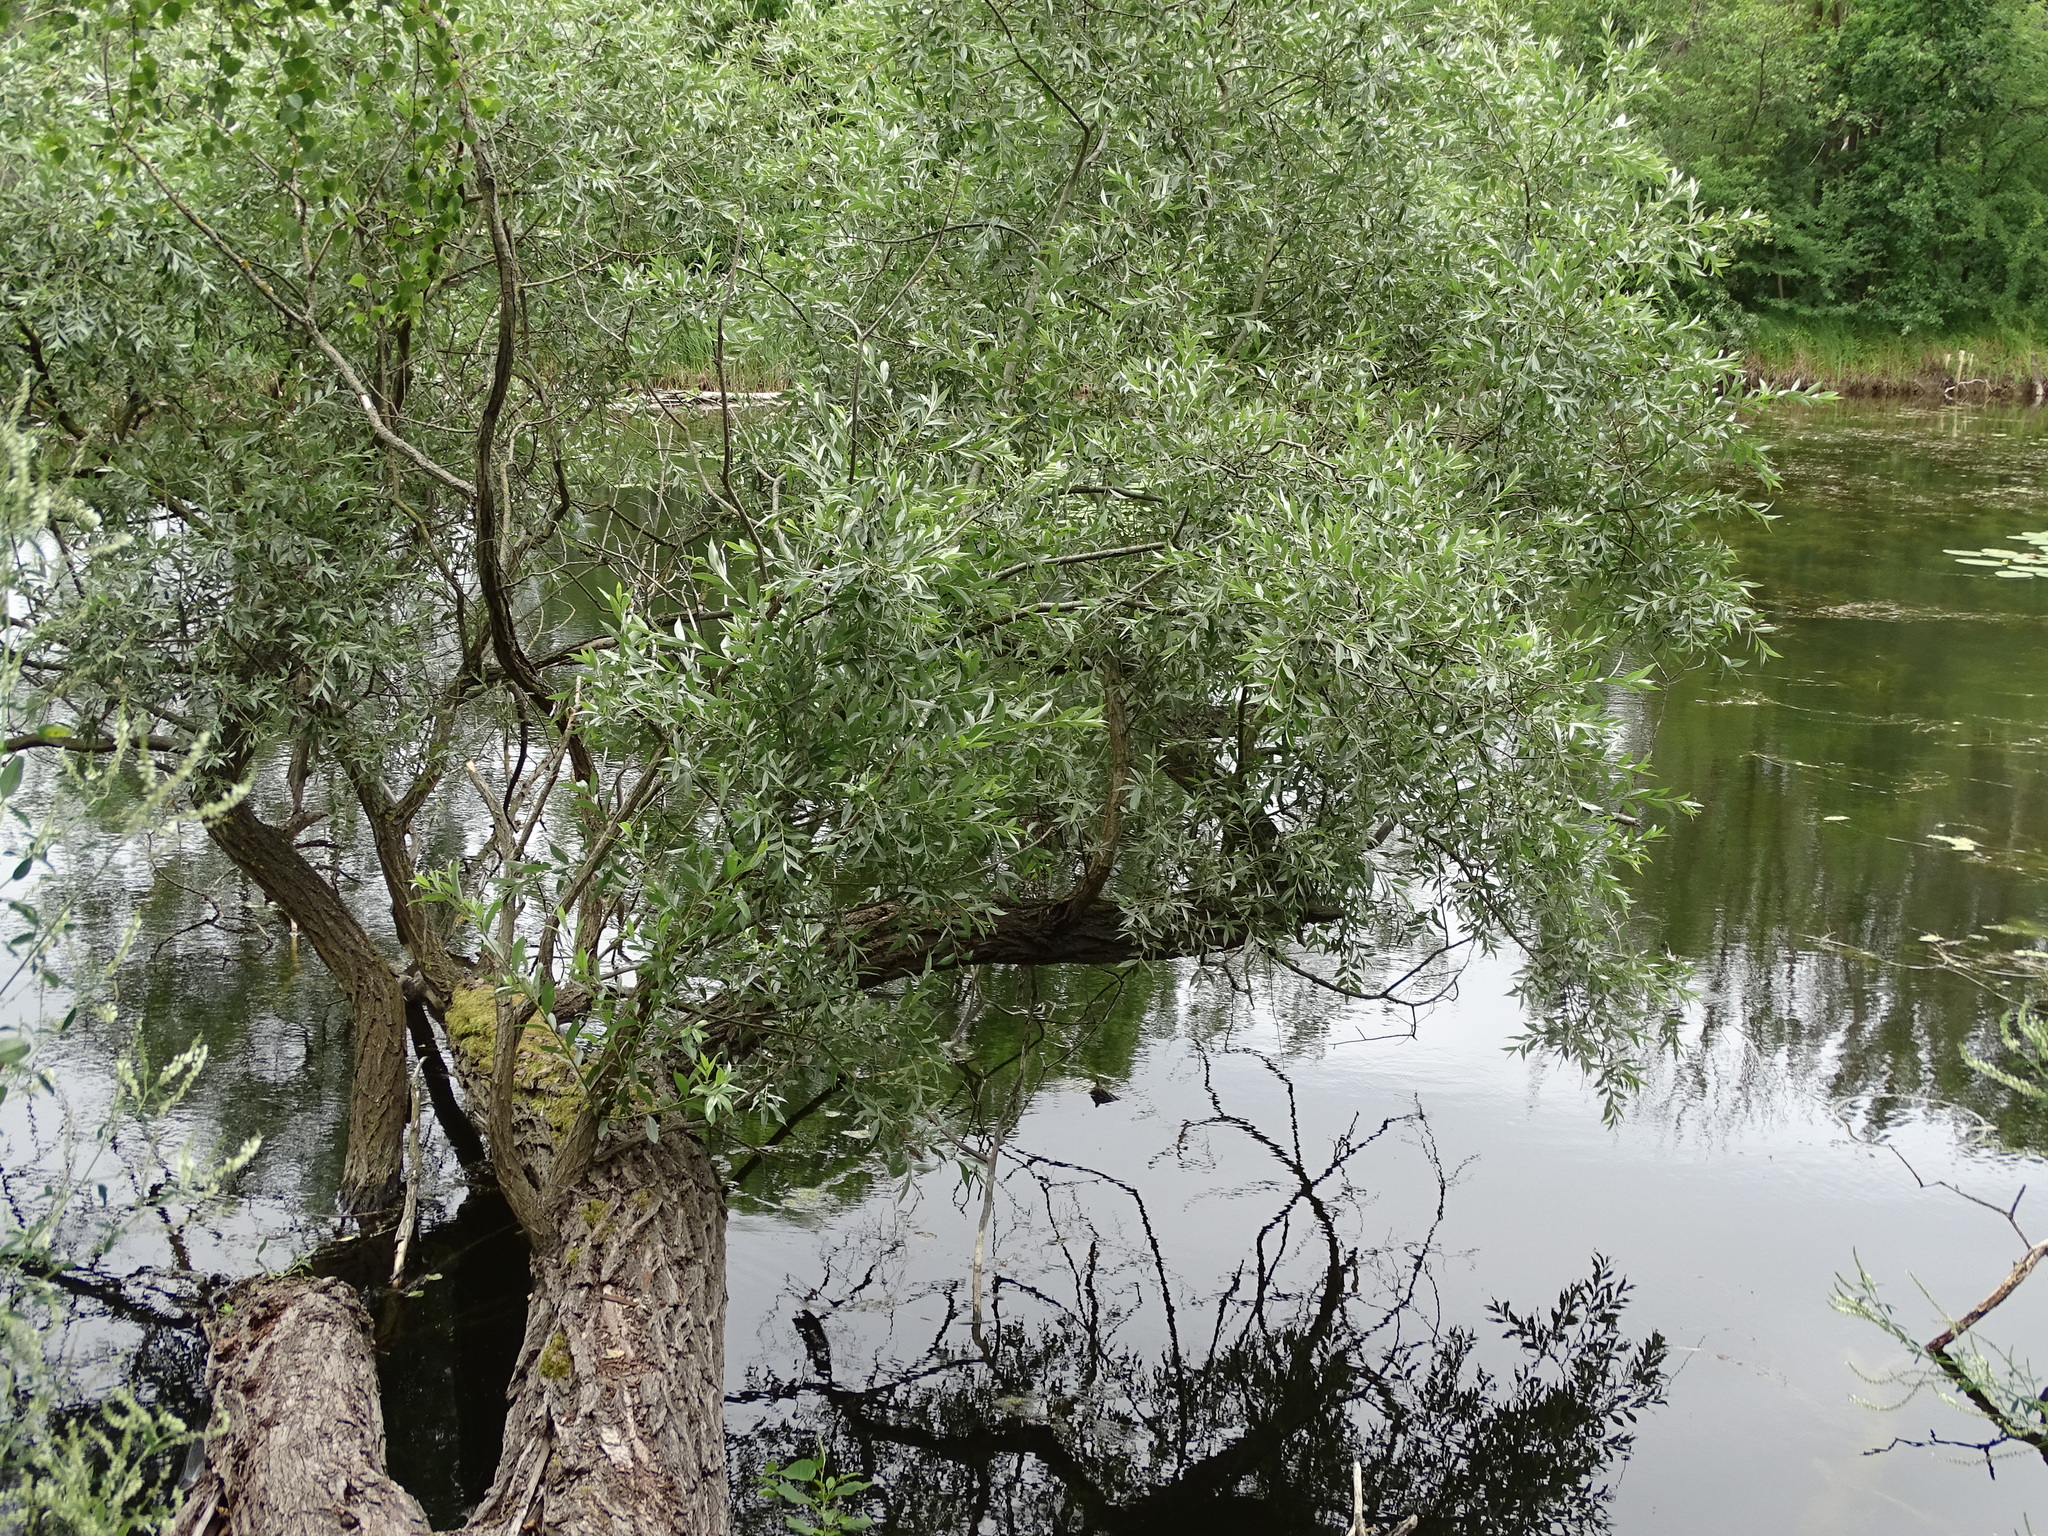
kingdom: Plantae
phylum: Tracheophyta
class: Magnoliopsida
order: Malpighiales
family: Salicaceae
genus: Salix
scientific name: Salix alba
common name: White willow
